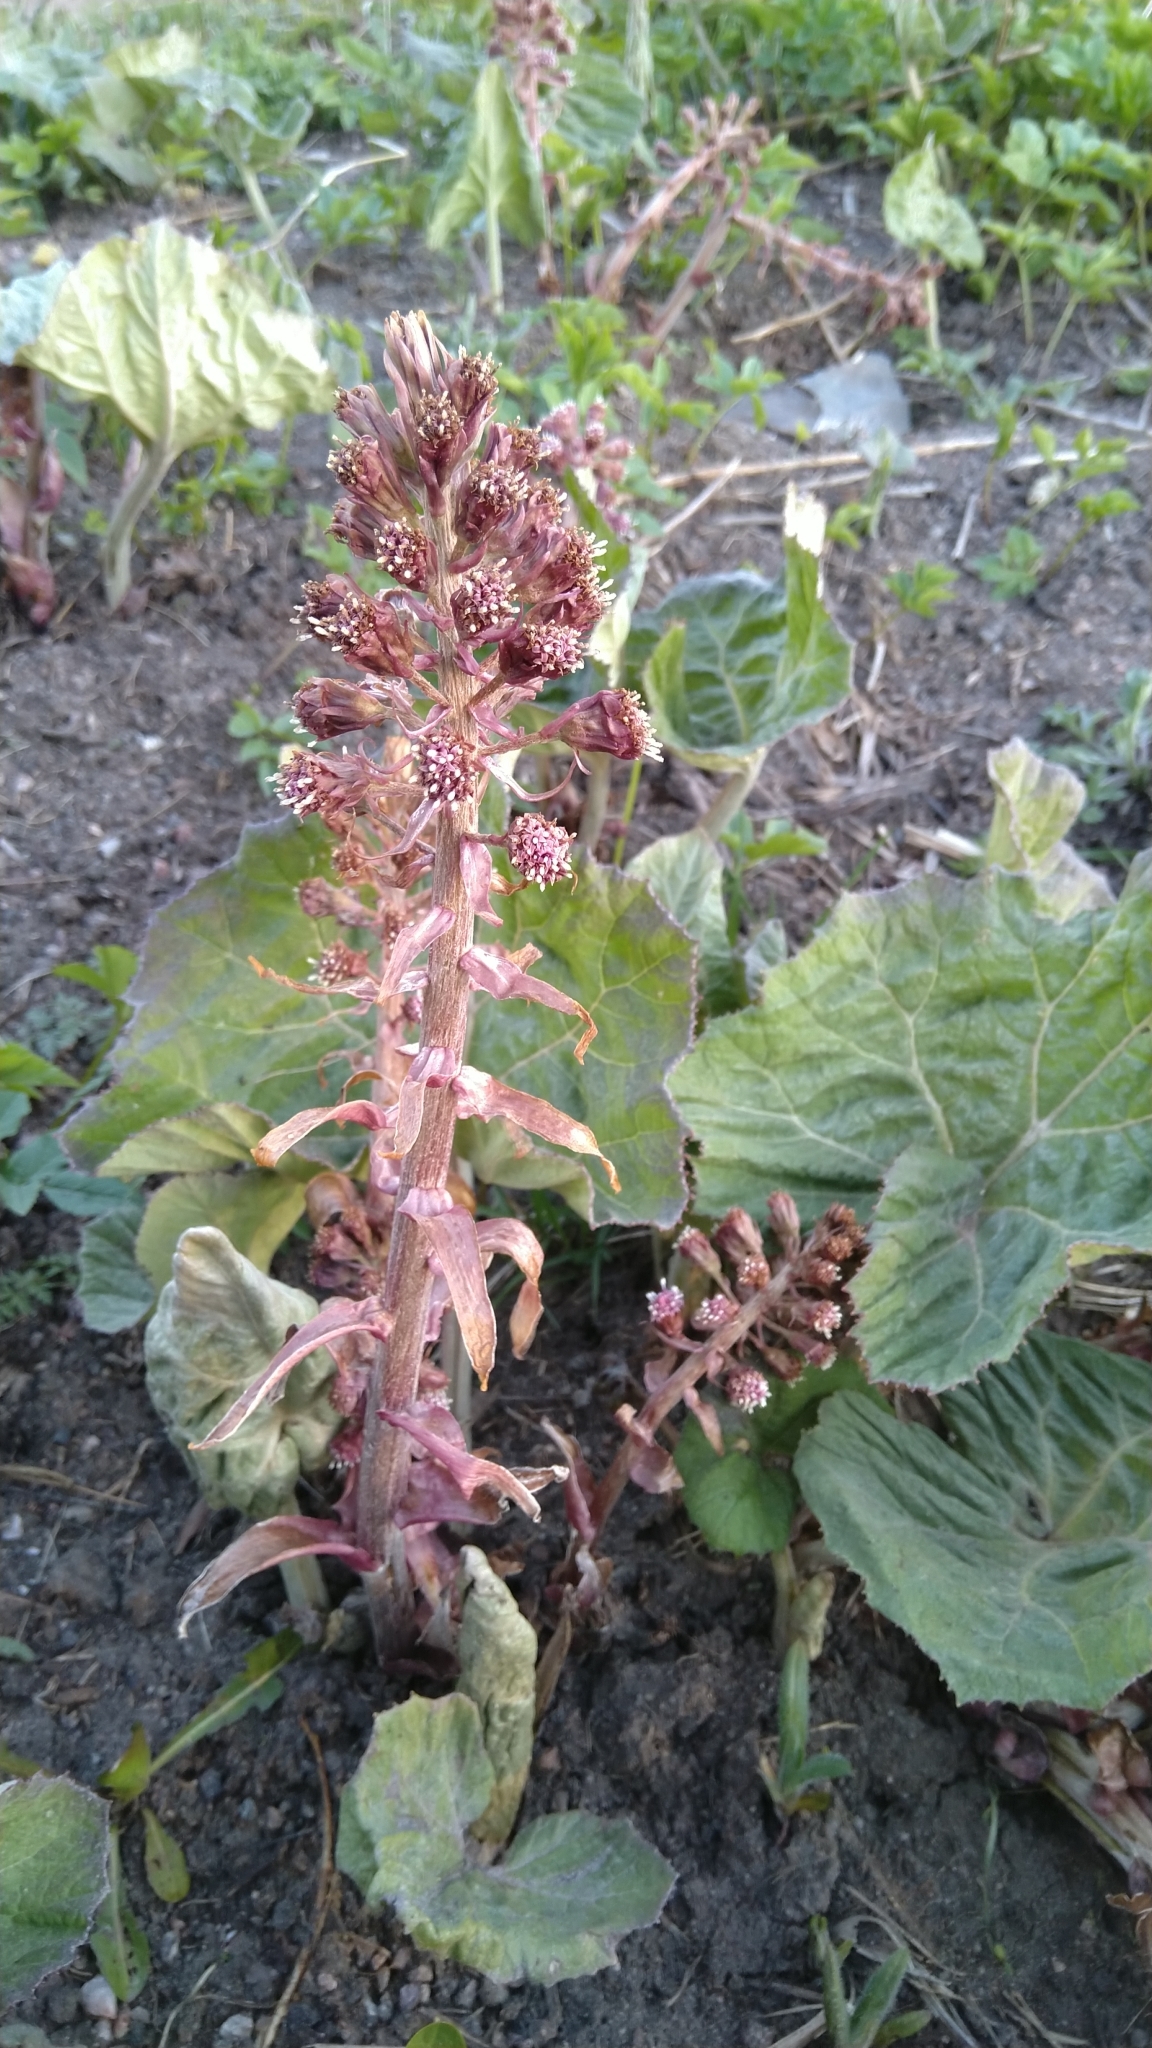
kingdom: Plantae
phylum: Tracheophyta
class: Magnoliopsida
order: Asterales
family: Asteraceae
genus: Petasites
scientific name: Petasites hybridus
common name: Butterbur
